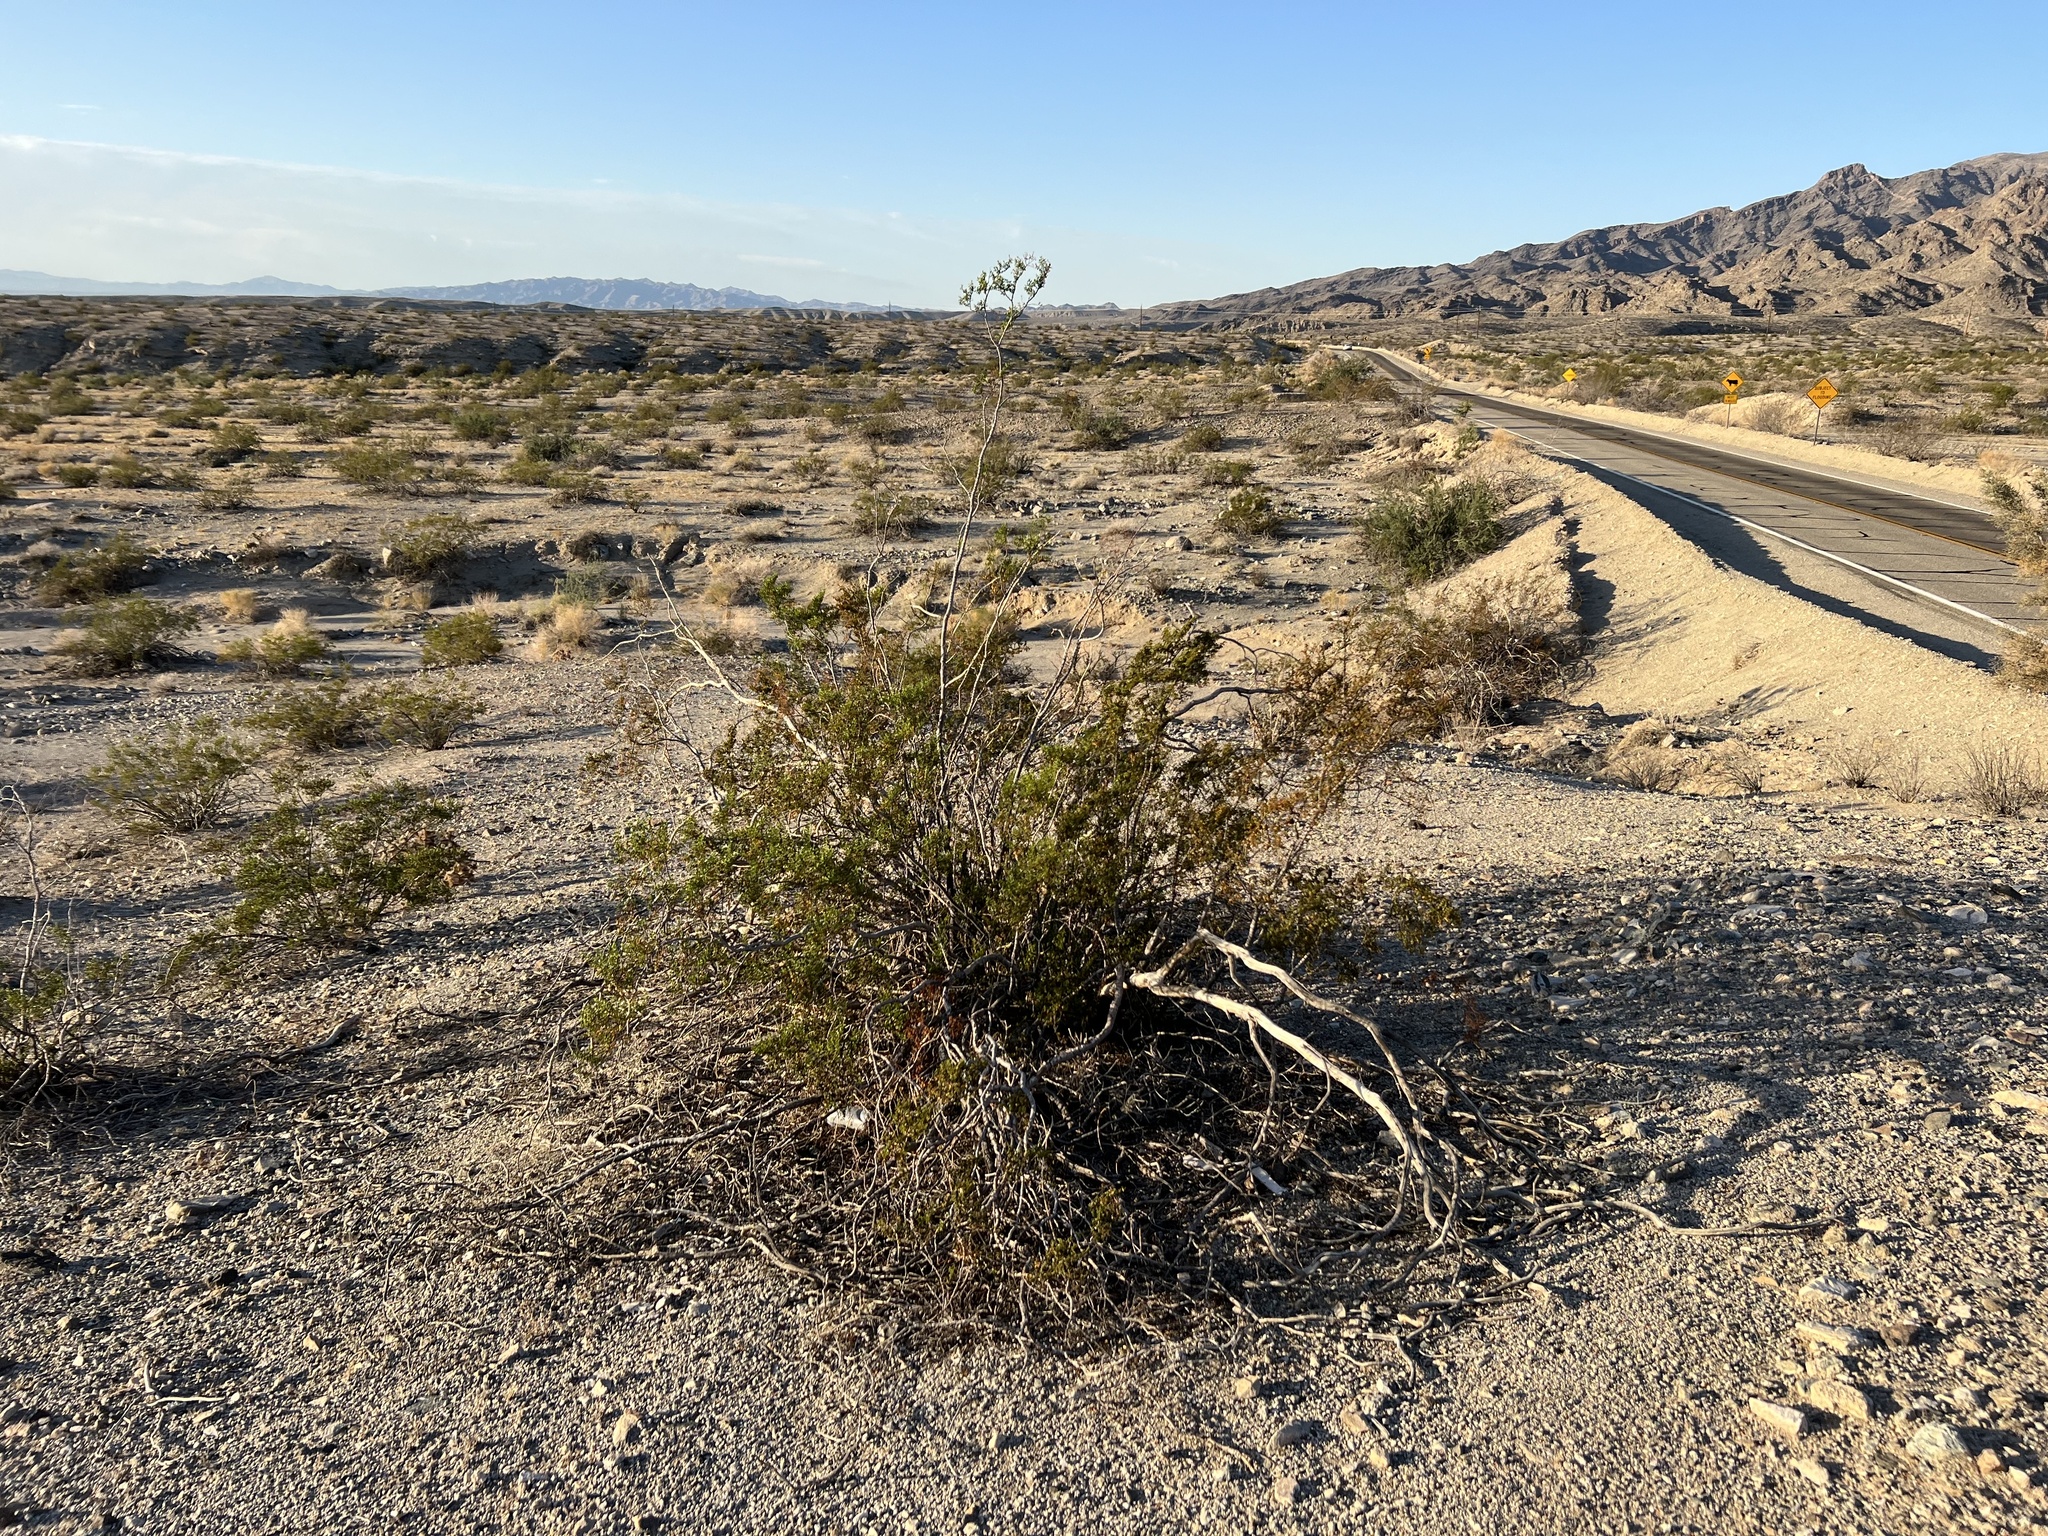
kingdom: Plantae
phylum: Tracheophyta
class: Magnoliopsida
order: Zygophyllales
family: Zygophyllaceae
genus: Larrea
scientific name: Larrea tridentata
